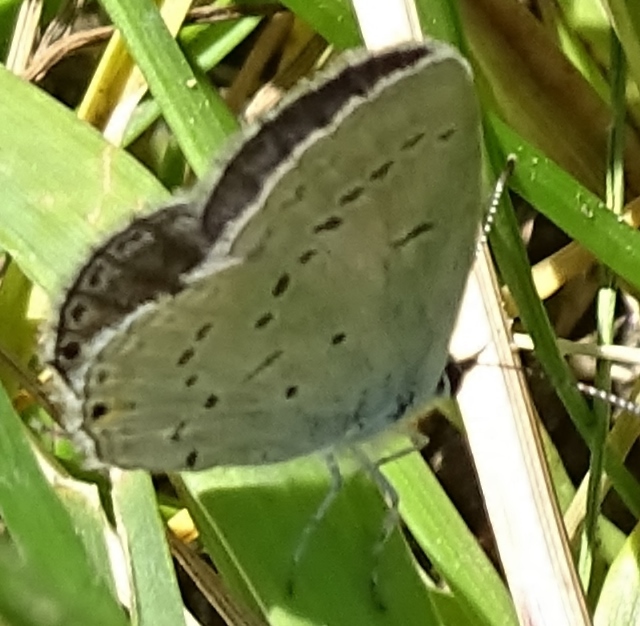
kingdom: Animalia
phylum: Arthropoda
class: Insecta
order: Lepidoptera
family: Lycaenidae
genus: Elkalyce
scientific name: Elkalyce comyntas
